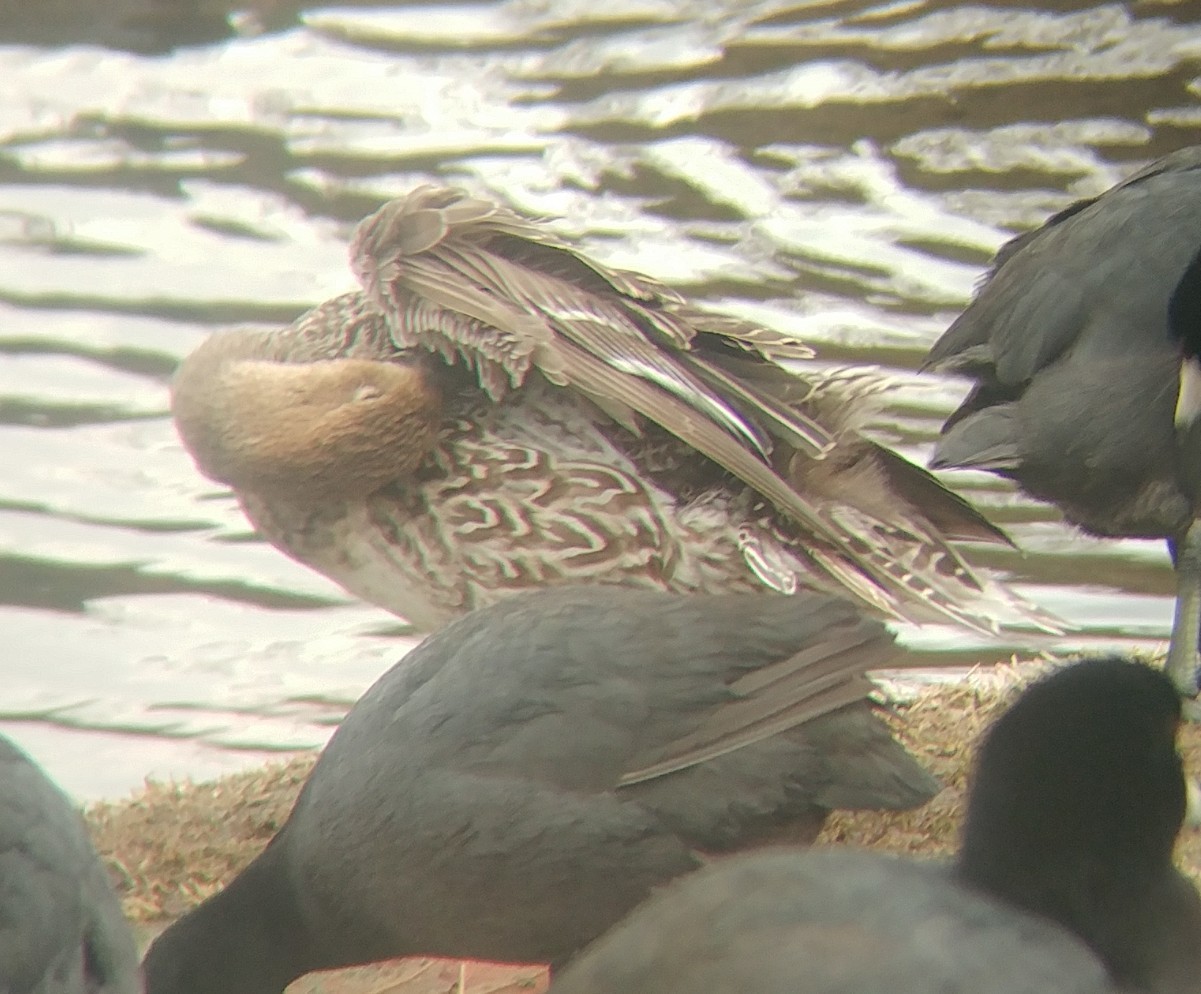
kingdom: Animalia
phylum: Chordata
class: Aves
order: Anseriformes
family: Anatidae
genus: Anas
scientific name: Anas acuta
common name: Northern pintail
